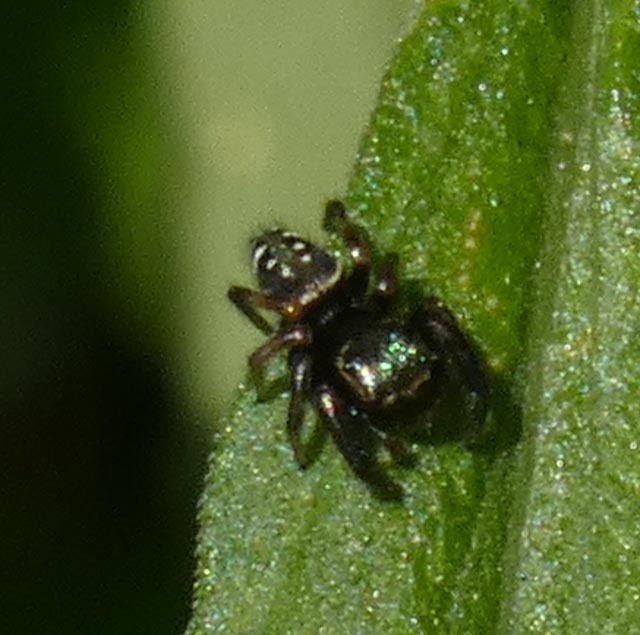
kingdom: Animalia
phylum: Arthropoda
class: Arachnida
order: Araneae
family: Salticidae
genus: Paraphidippus
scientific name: Paraphidippus aurantius
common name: Jumping spiders
